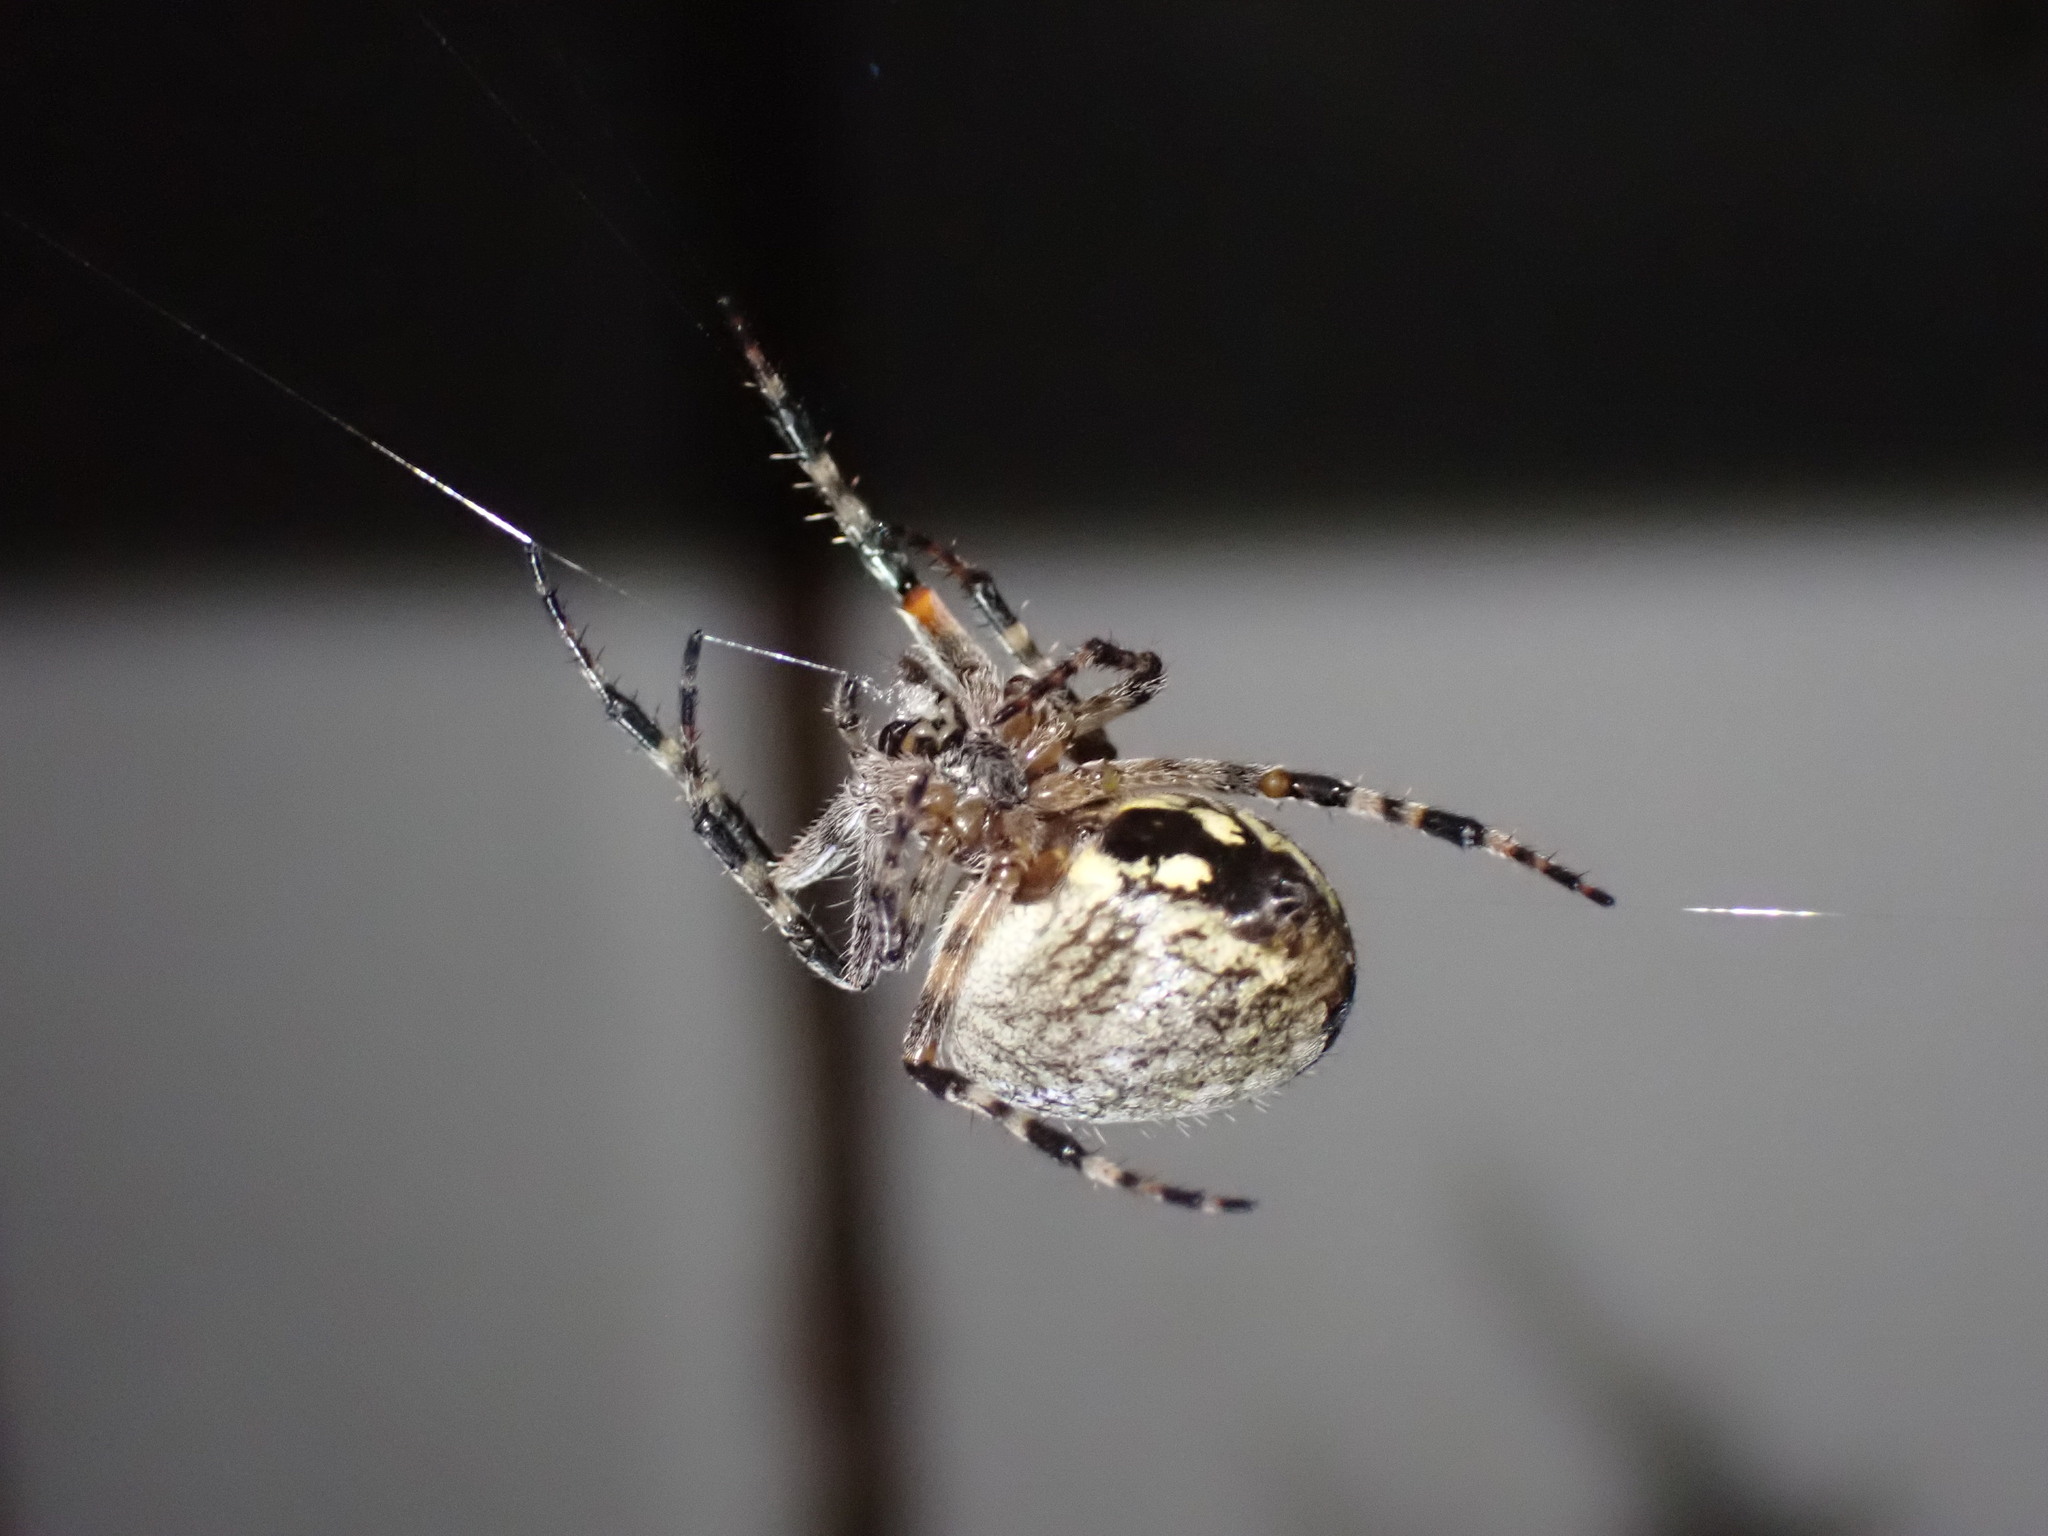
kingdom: Animalia
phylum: Arthropoda
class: Arachnida
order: Araneae
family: Araneidae
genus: Araneus
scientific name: Araneus nordmanni
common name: Nordmann's orbweaver
